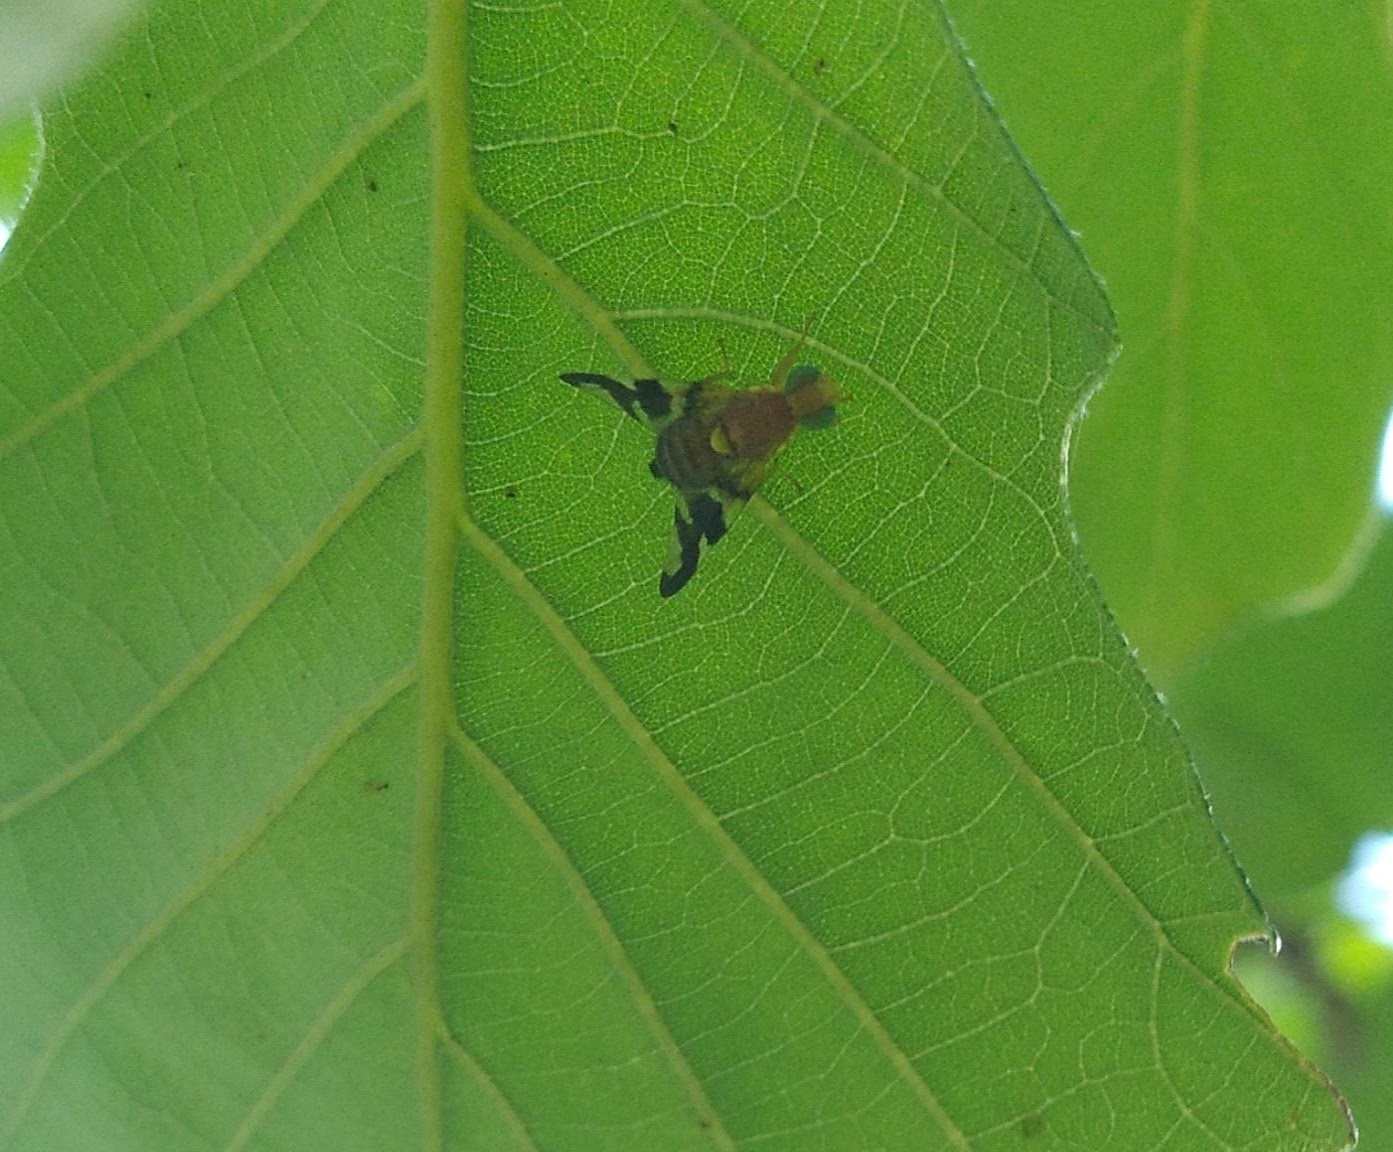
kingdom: Animalia
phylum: Arthropoda
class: Insecta
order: Diptera
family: Tephritidae
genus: Rhagoletis
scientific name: Rhagoletis suavis
